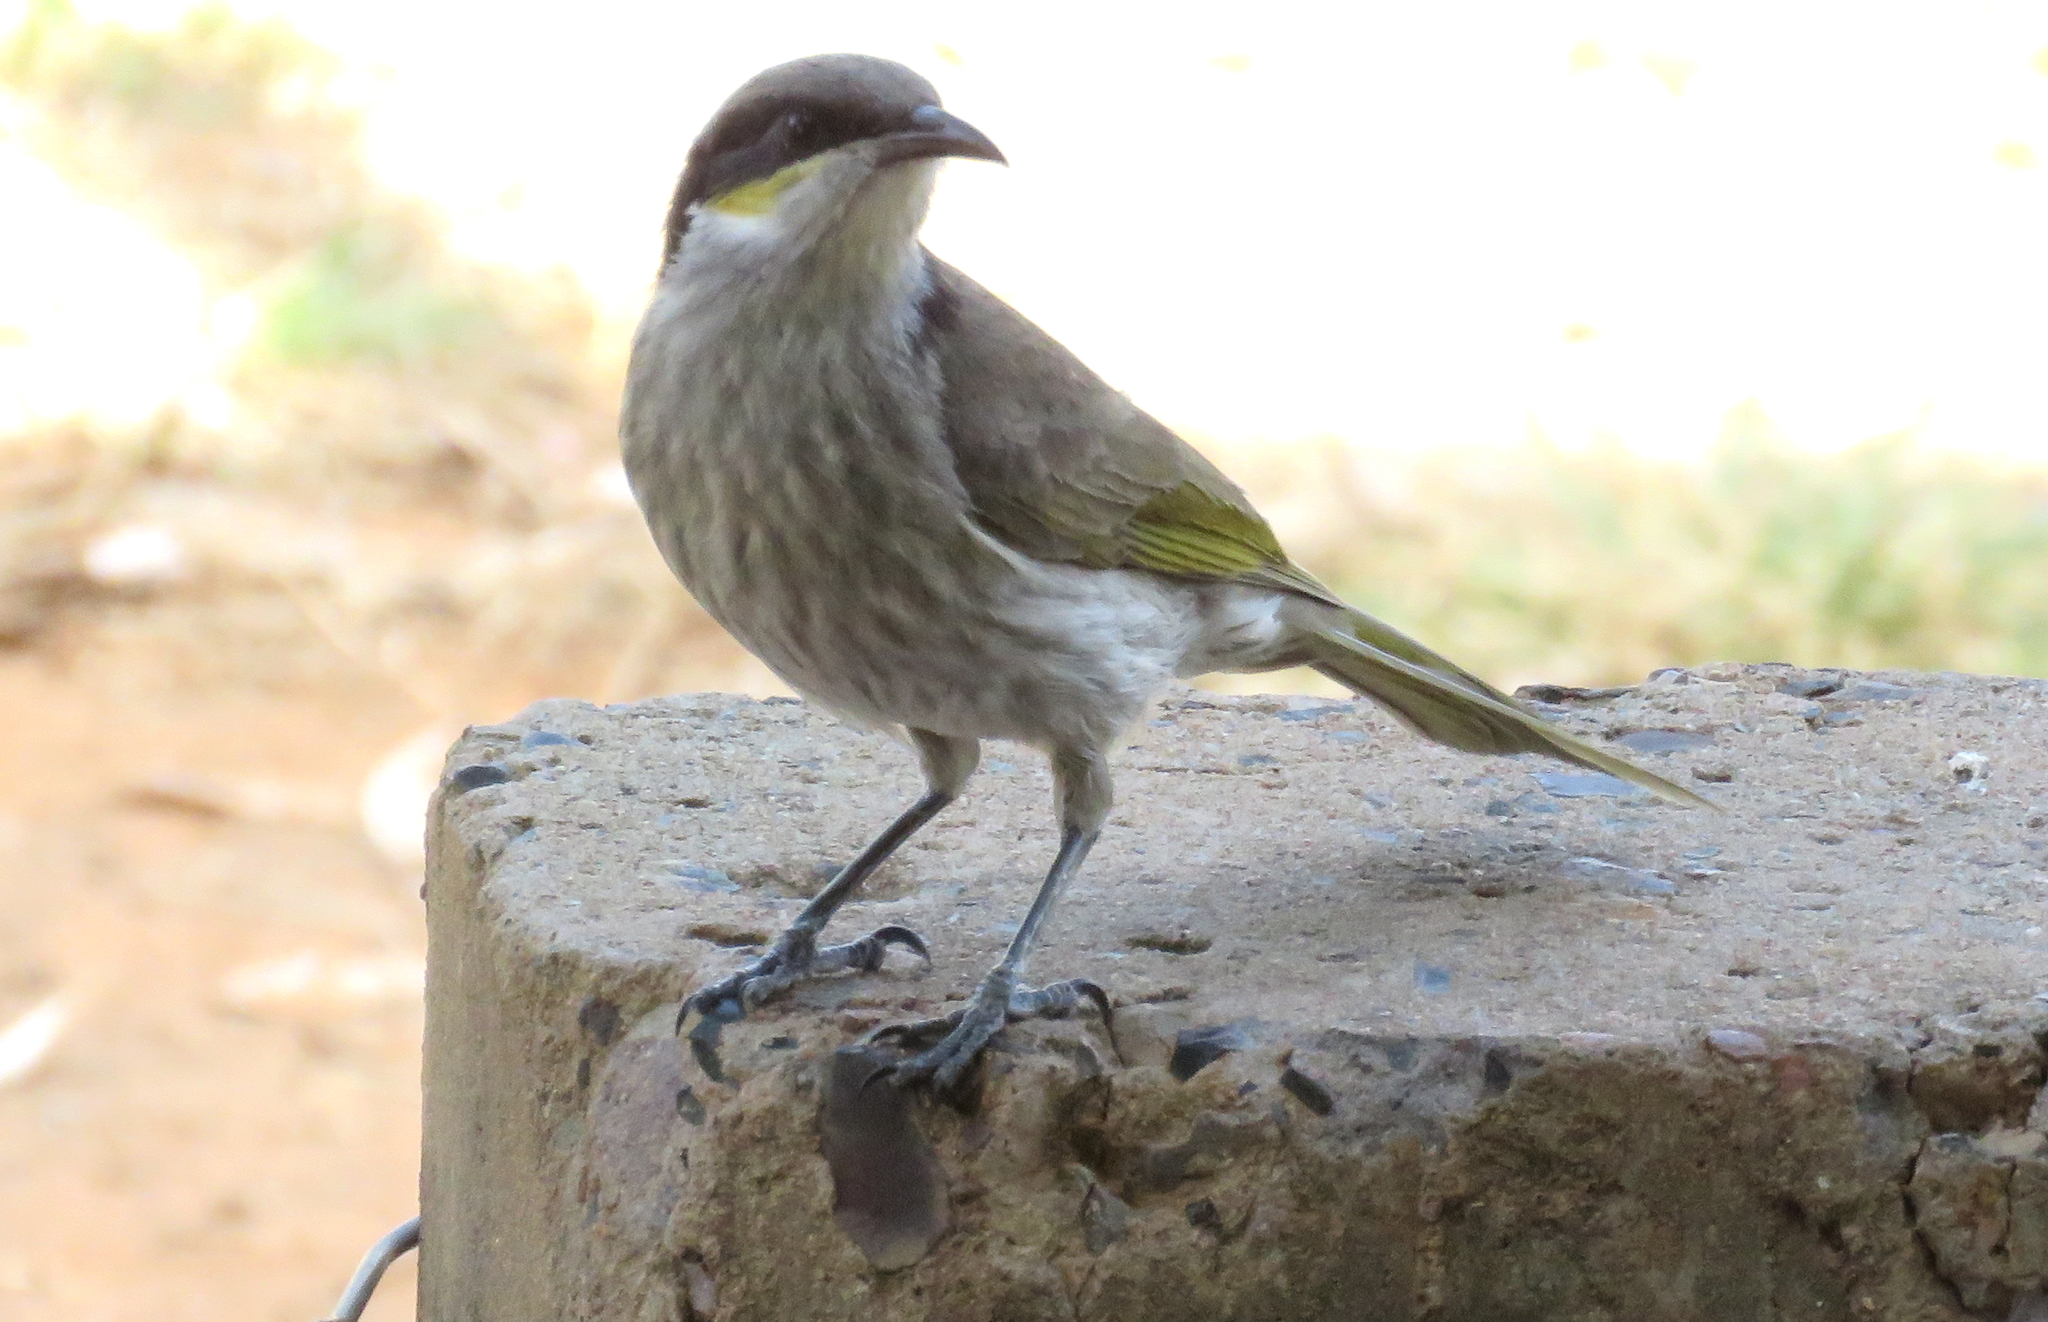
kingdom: Animalia
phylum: Chordata
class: Aves
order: Passeriformes
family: Meliphagidae
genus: Gavicalis
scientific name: Gavicalis virescens
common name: Singing honeyeater
